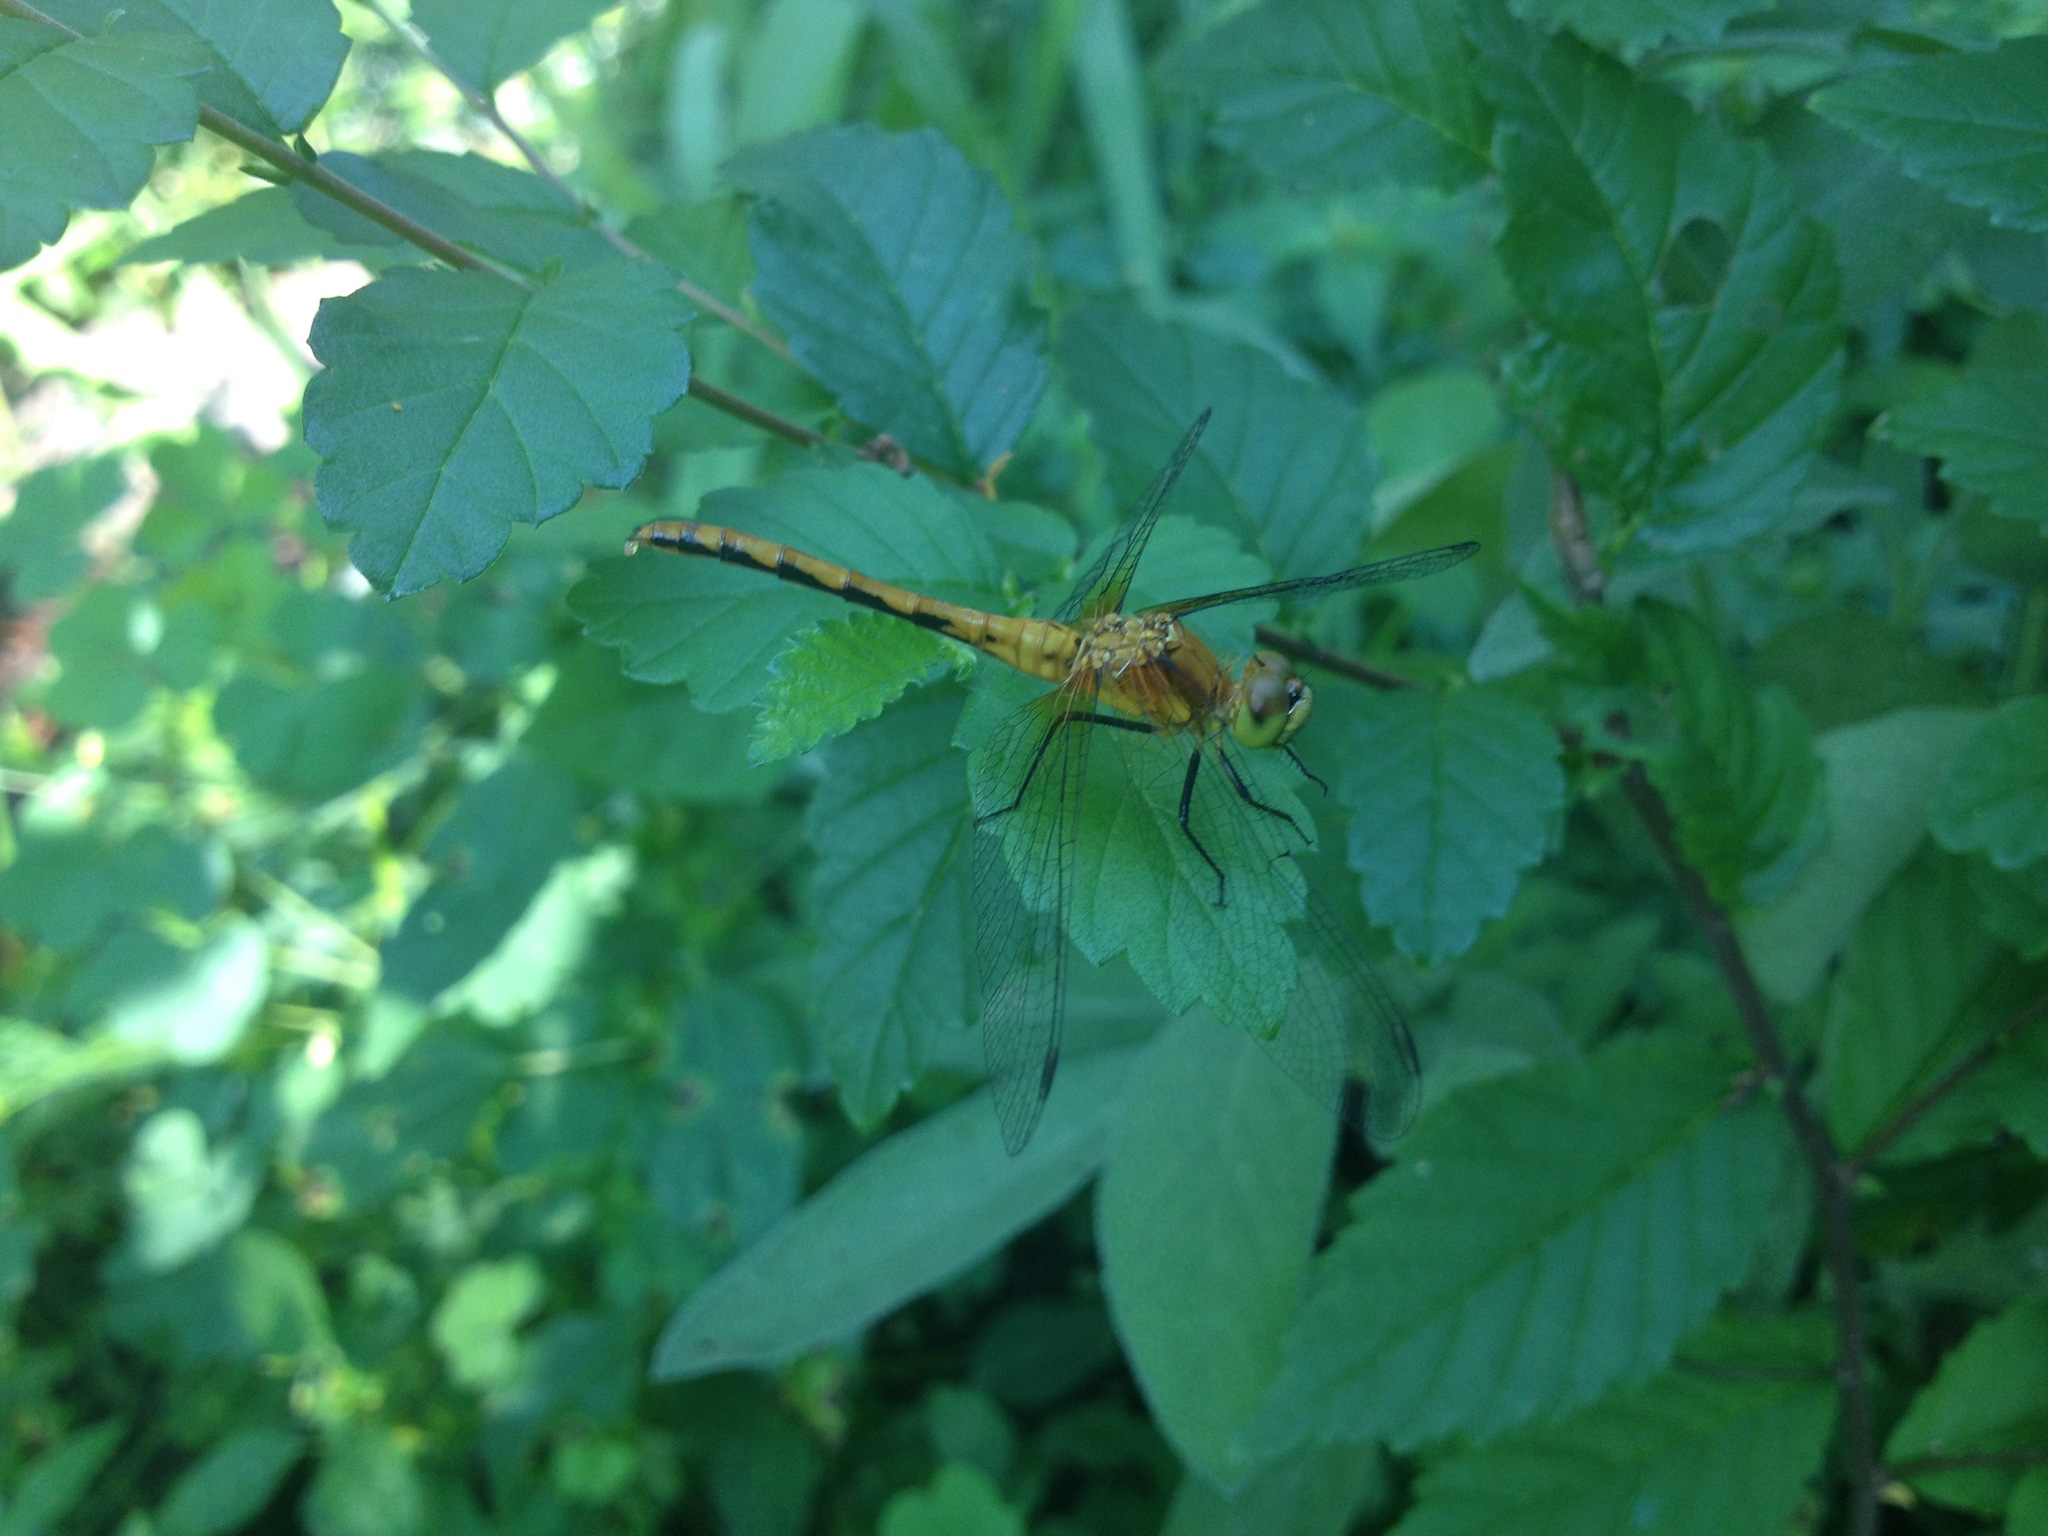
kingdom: Animalia
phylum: Arthropoda
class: Insecta
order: Odonata
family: Libellulidae
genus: Sympetrum
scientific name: Sympetrum
